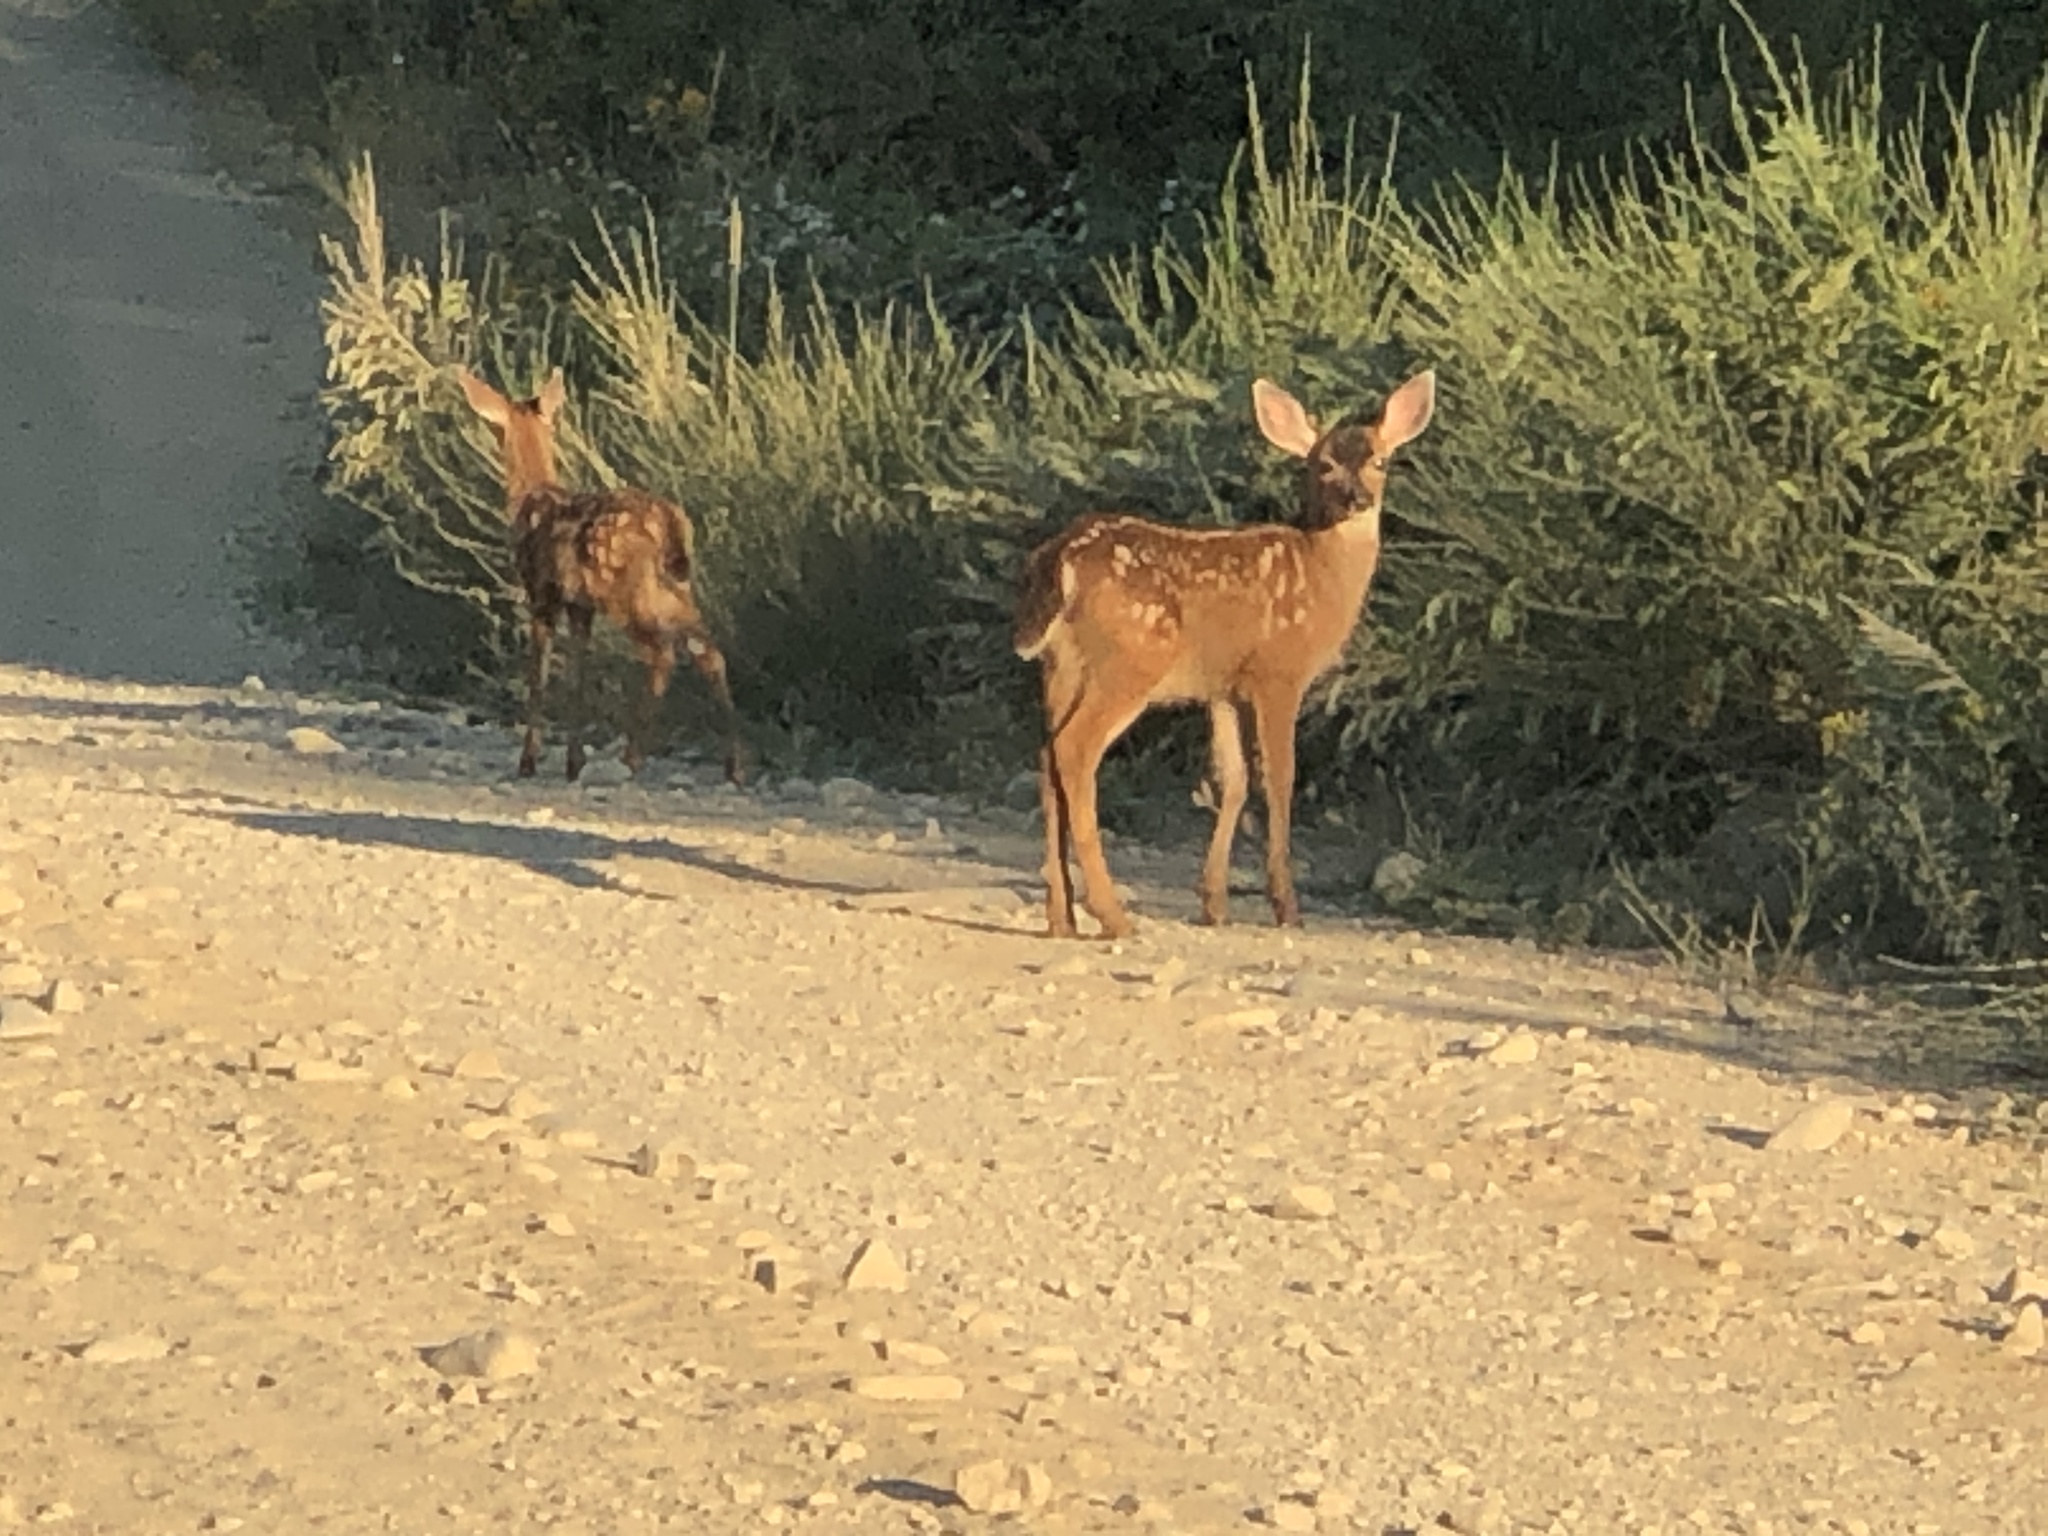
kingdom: Animalia
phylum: Chordata
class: Mammalia
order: Artiodactyla
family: Cervidae
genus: Odocoileus
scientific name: Odocoileus hemionus
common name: Mule deer
